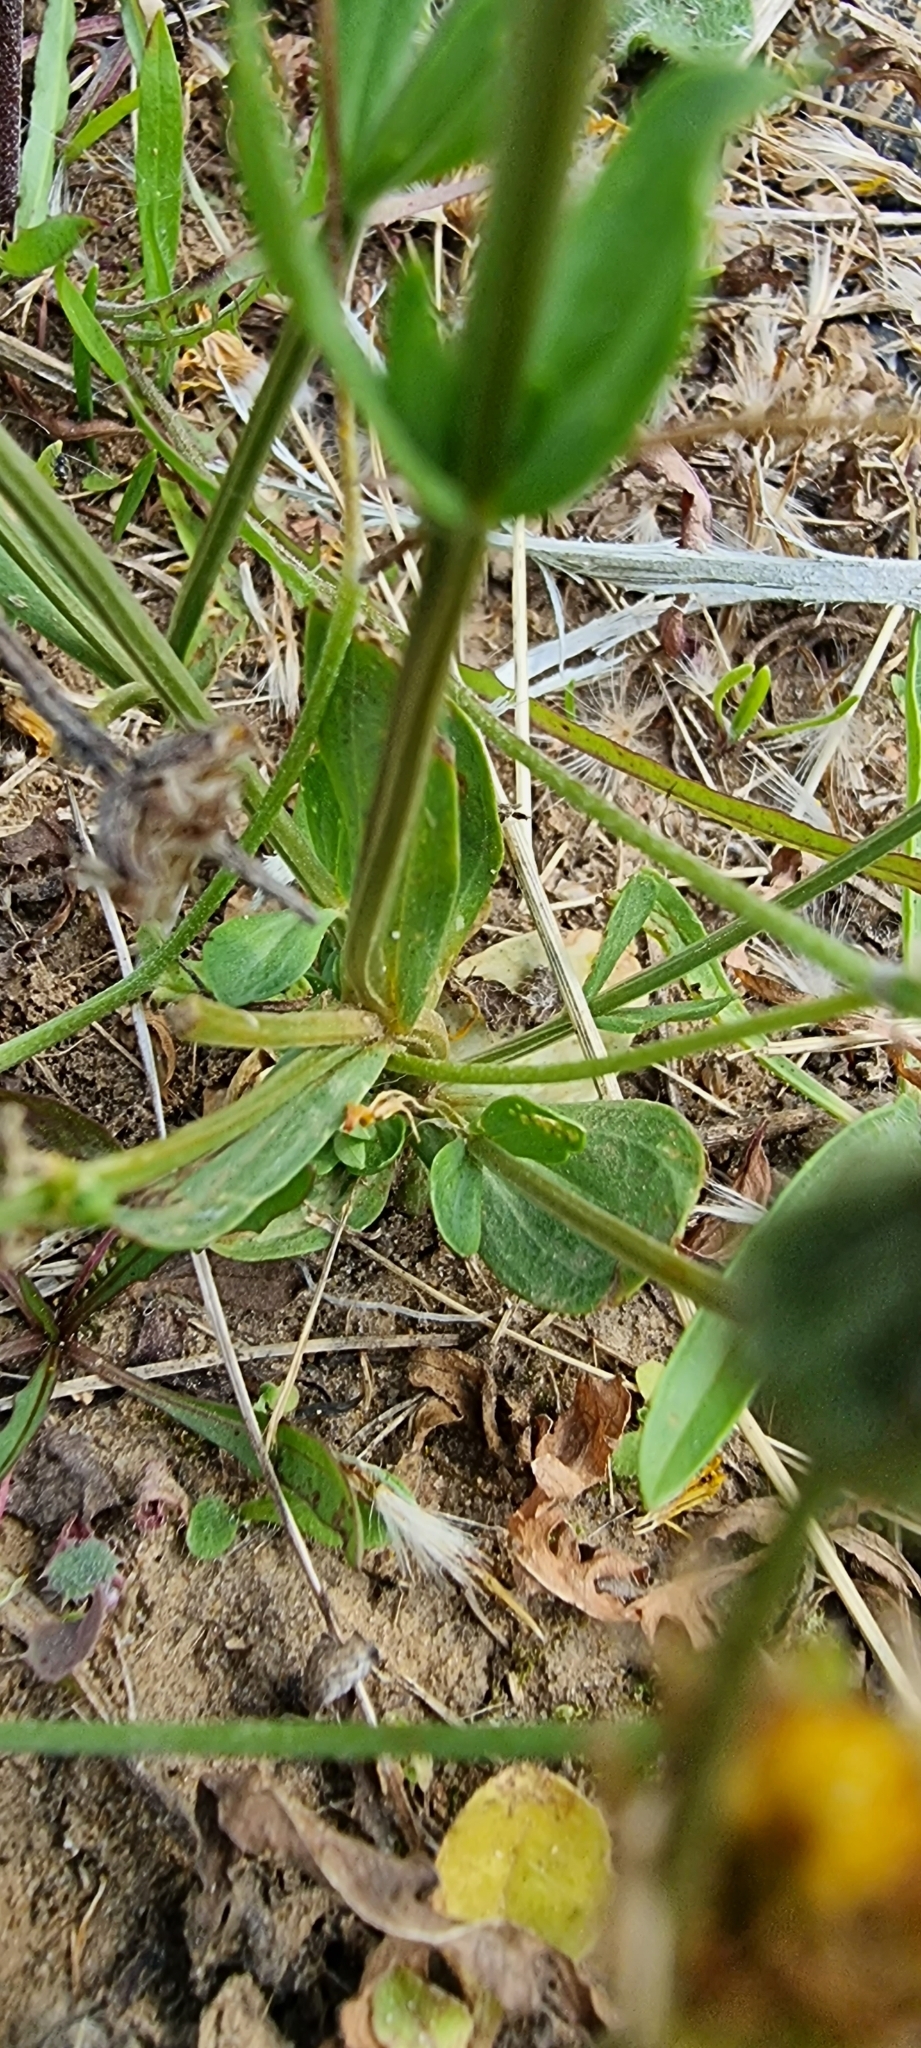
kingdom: Plantae
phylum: Tracheophyta
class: Magnoliopsida
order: Gentianales
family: Gentianaceae
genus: Centaurium
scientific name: Centaurium erythraea
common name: Common centaury
